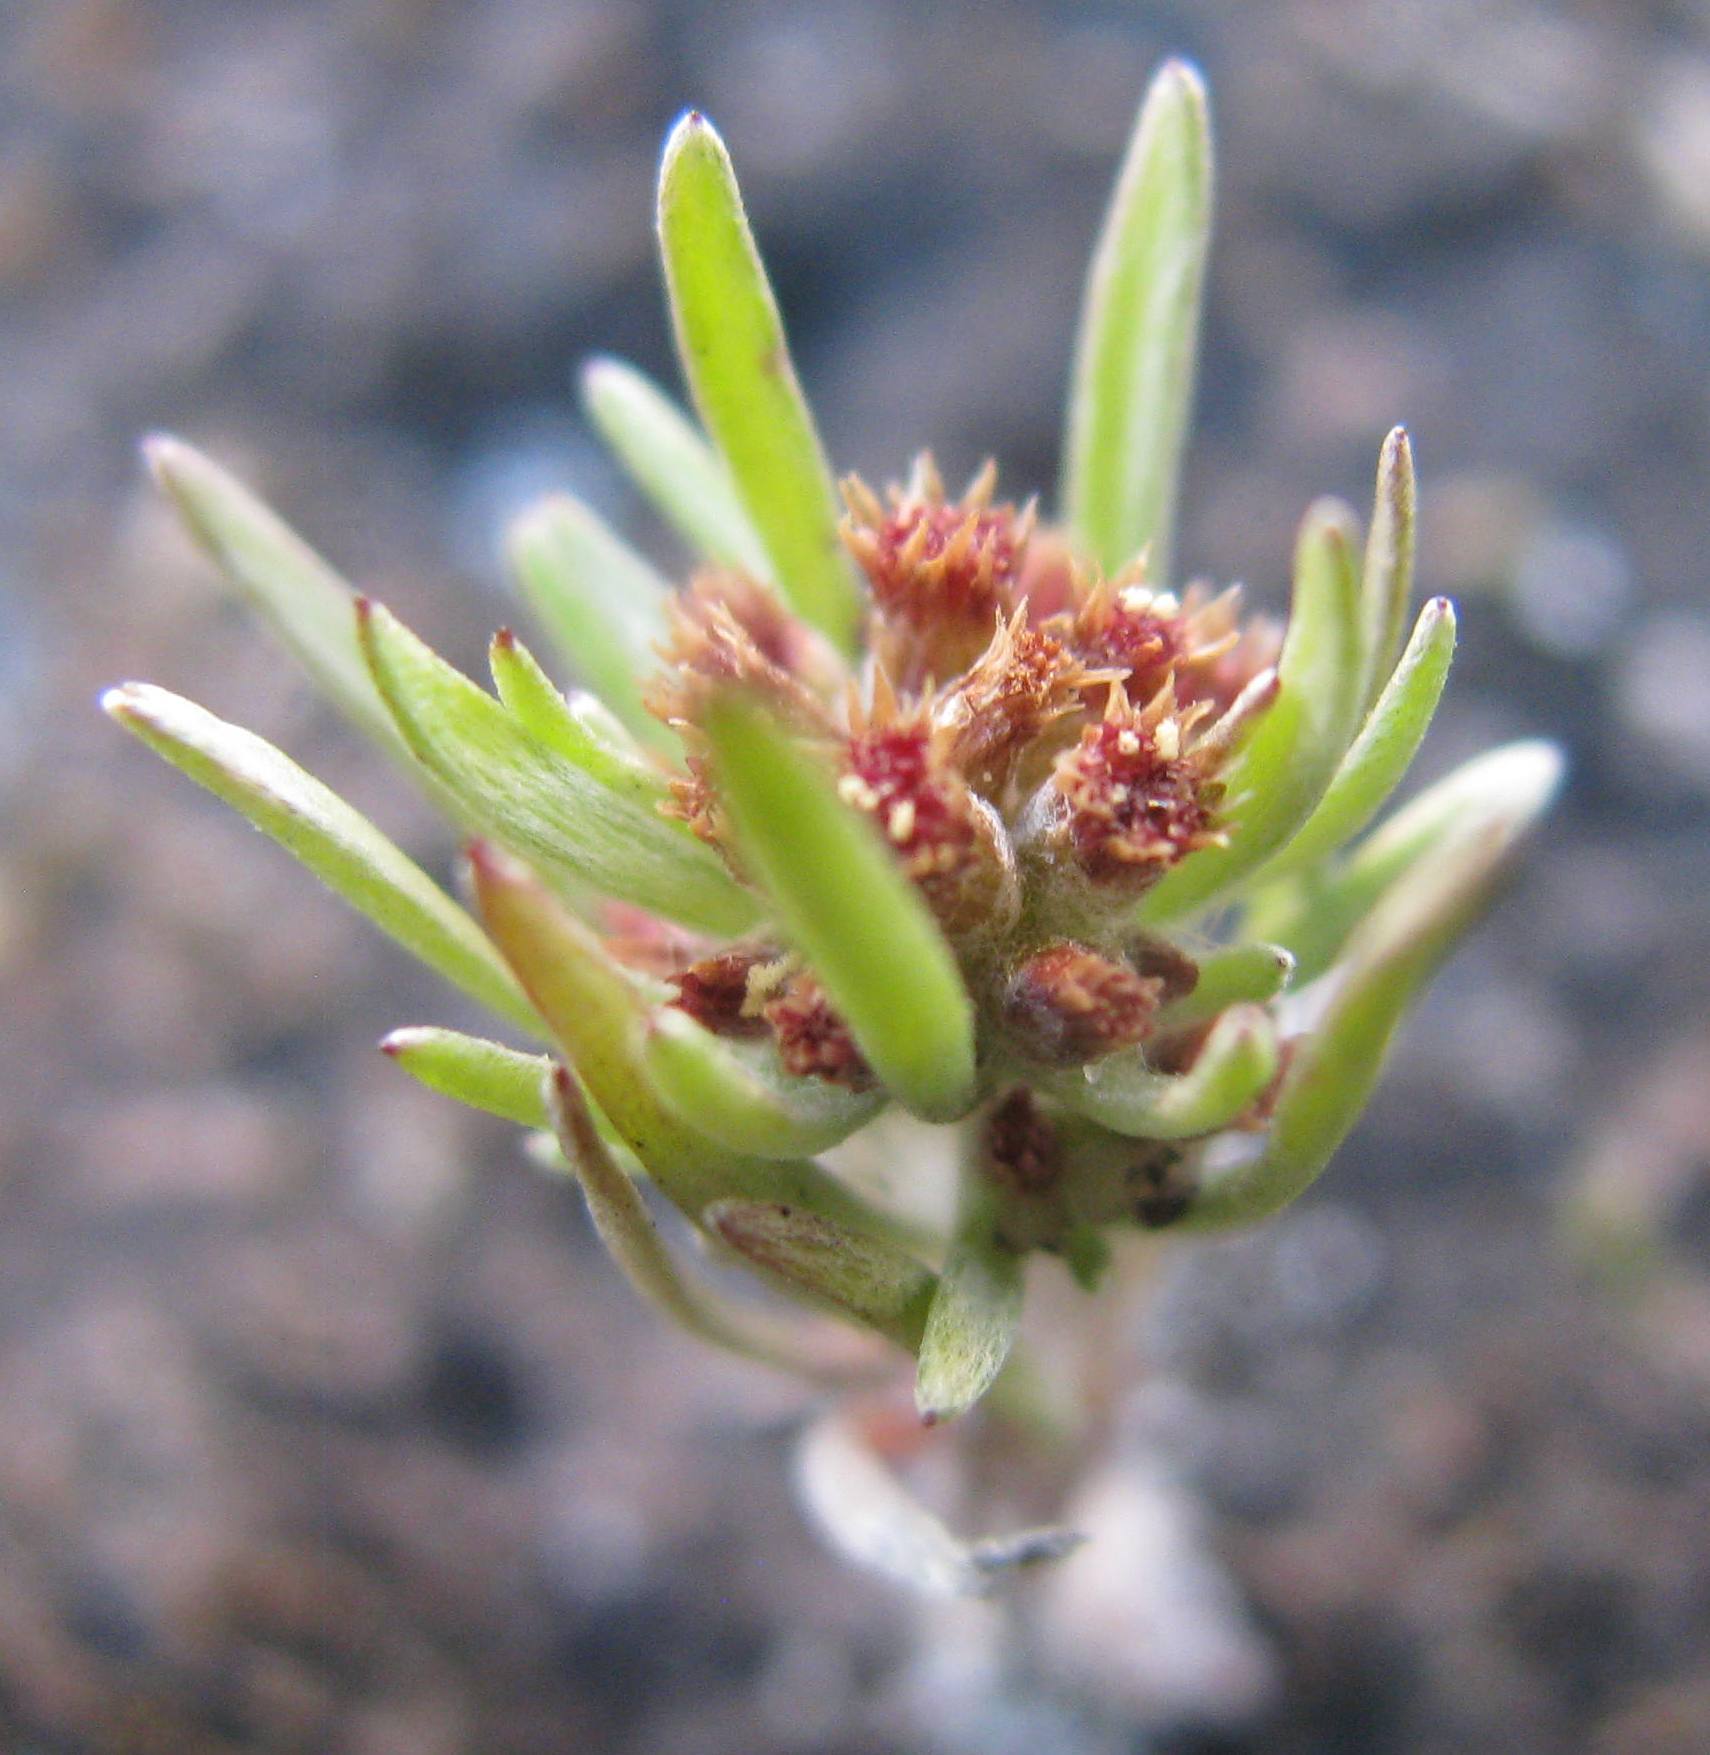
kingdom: Plantae
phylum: Tracheophyta
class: Magnoliopsida
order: Asterales
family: Asteraceae
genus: Gnaphalium
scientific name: Gnaphalium pauciflorum
